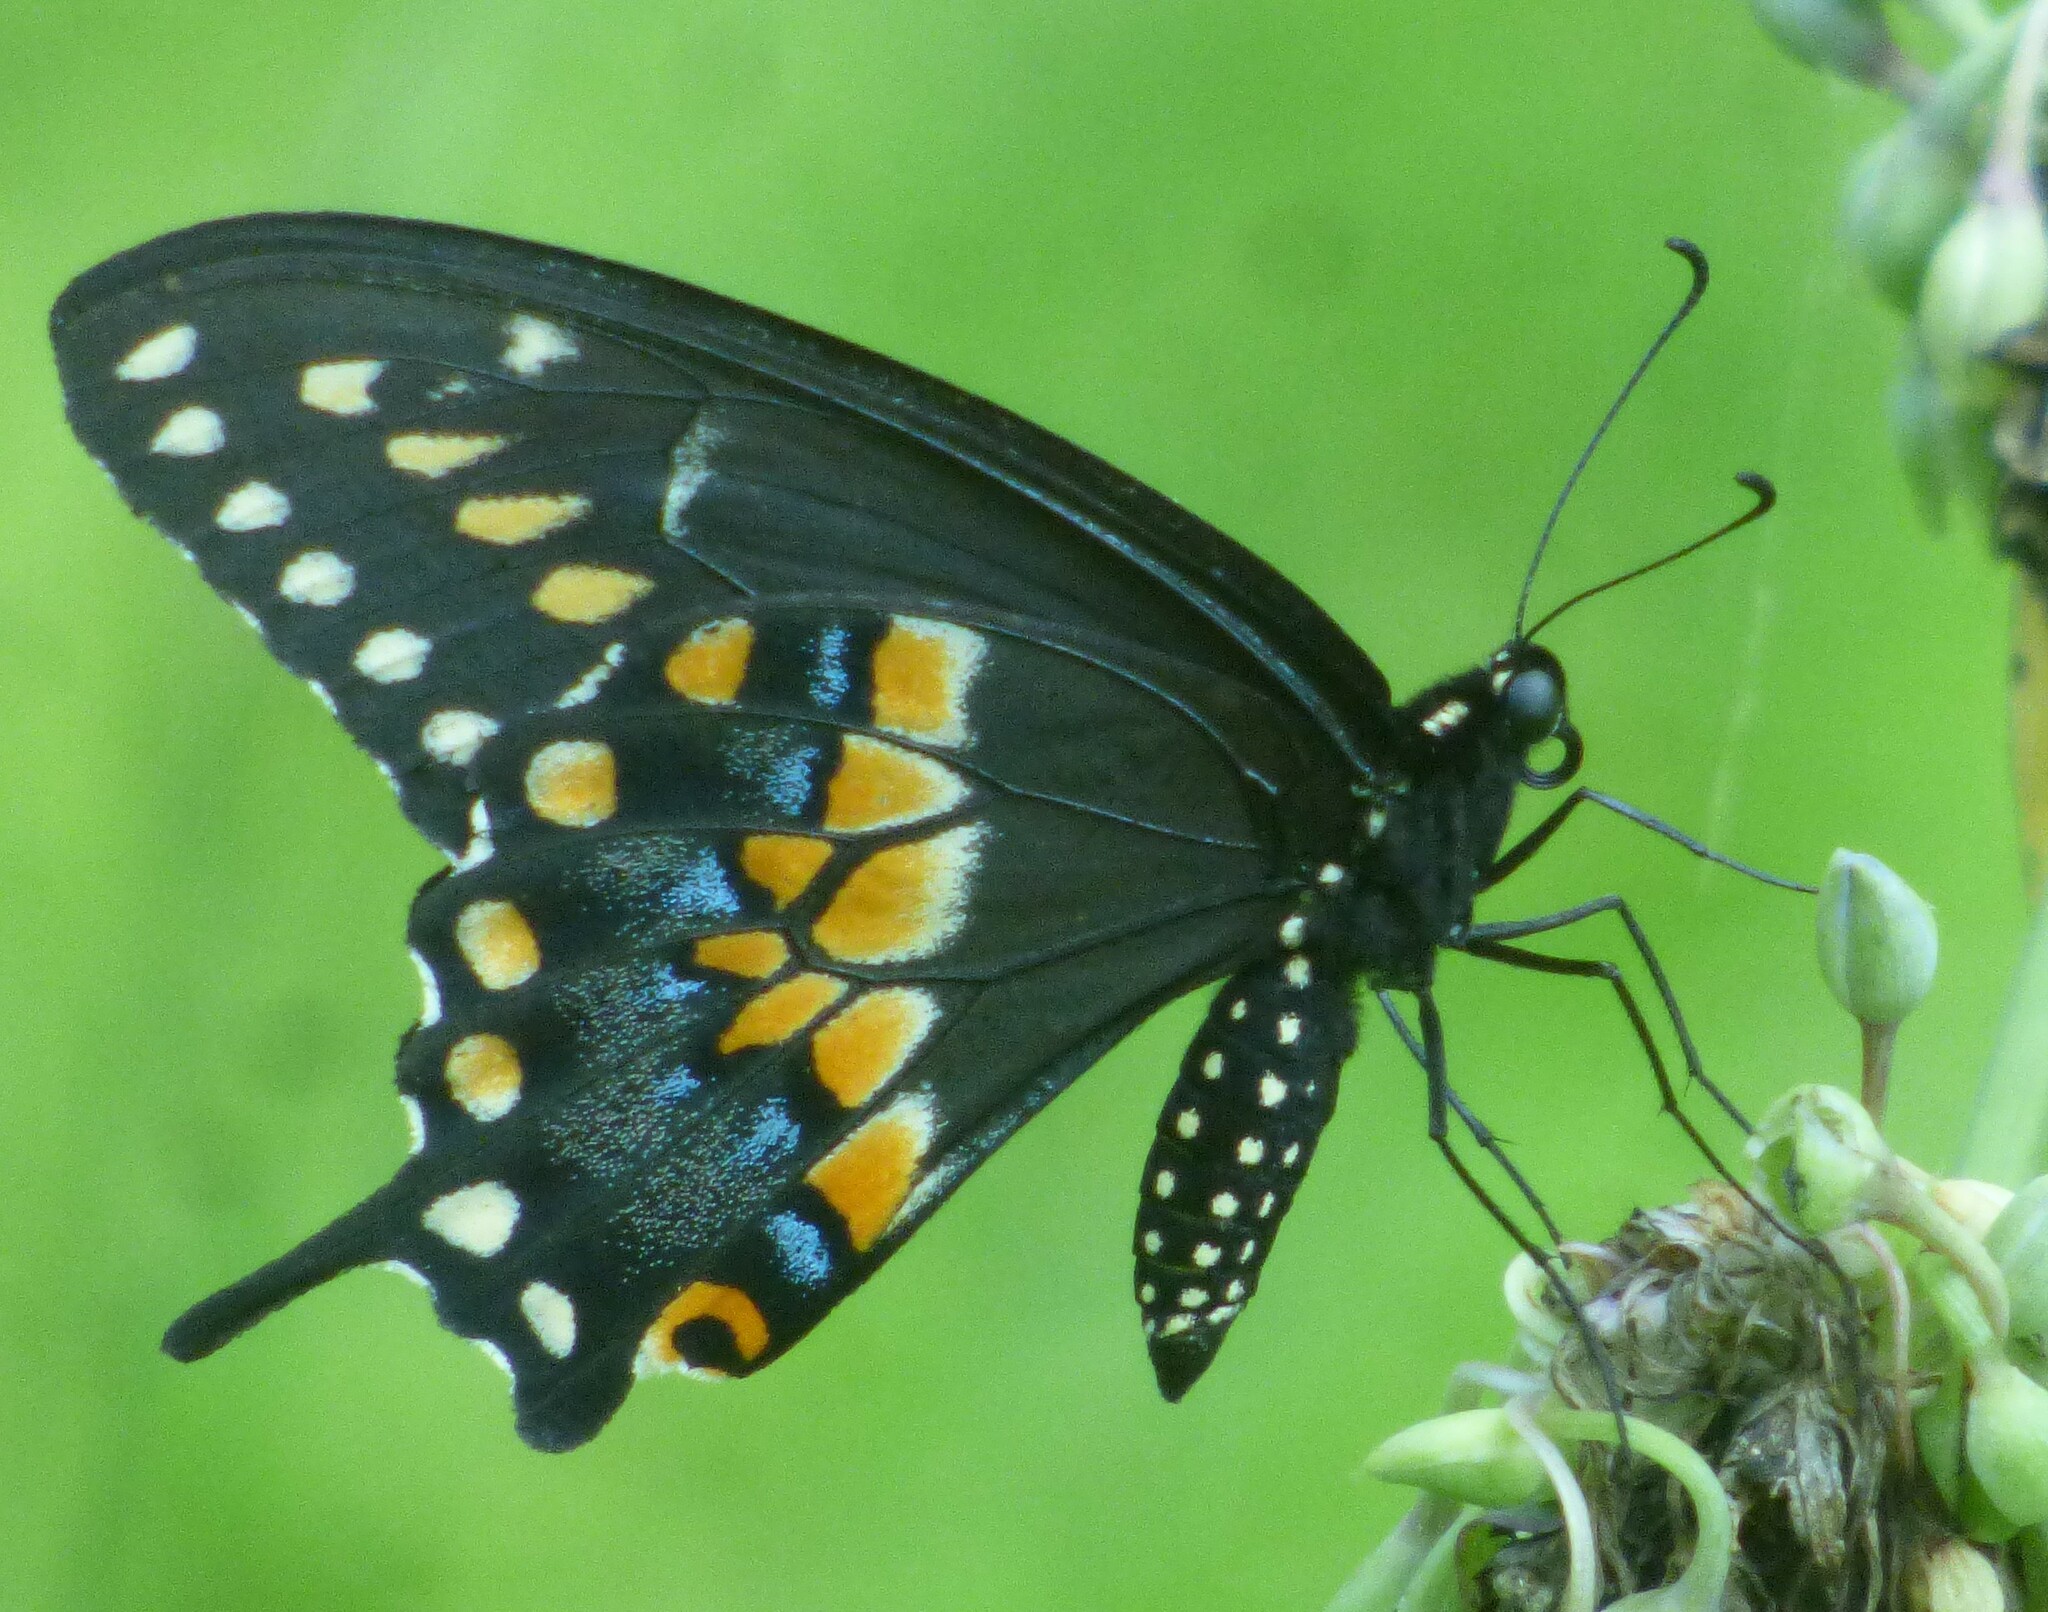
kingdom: Animalia
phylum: Arthropoda
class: Insecta
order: Lepidoptera
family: Papilionidae
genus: Papilio
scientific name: Papilio polyxenes
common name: Black swallowtail
